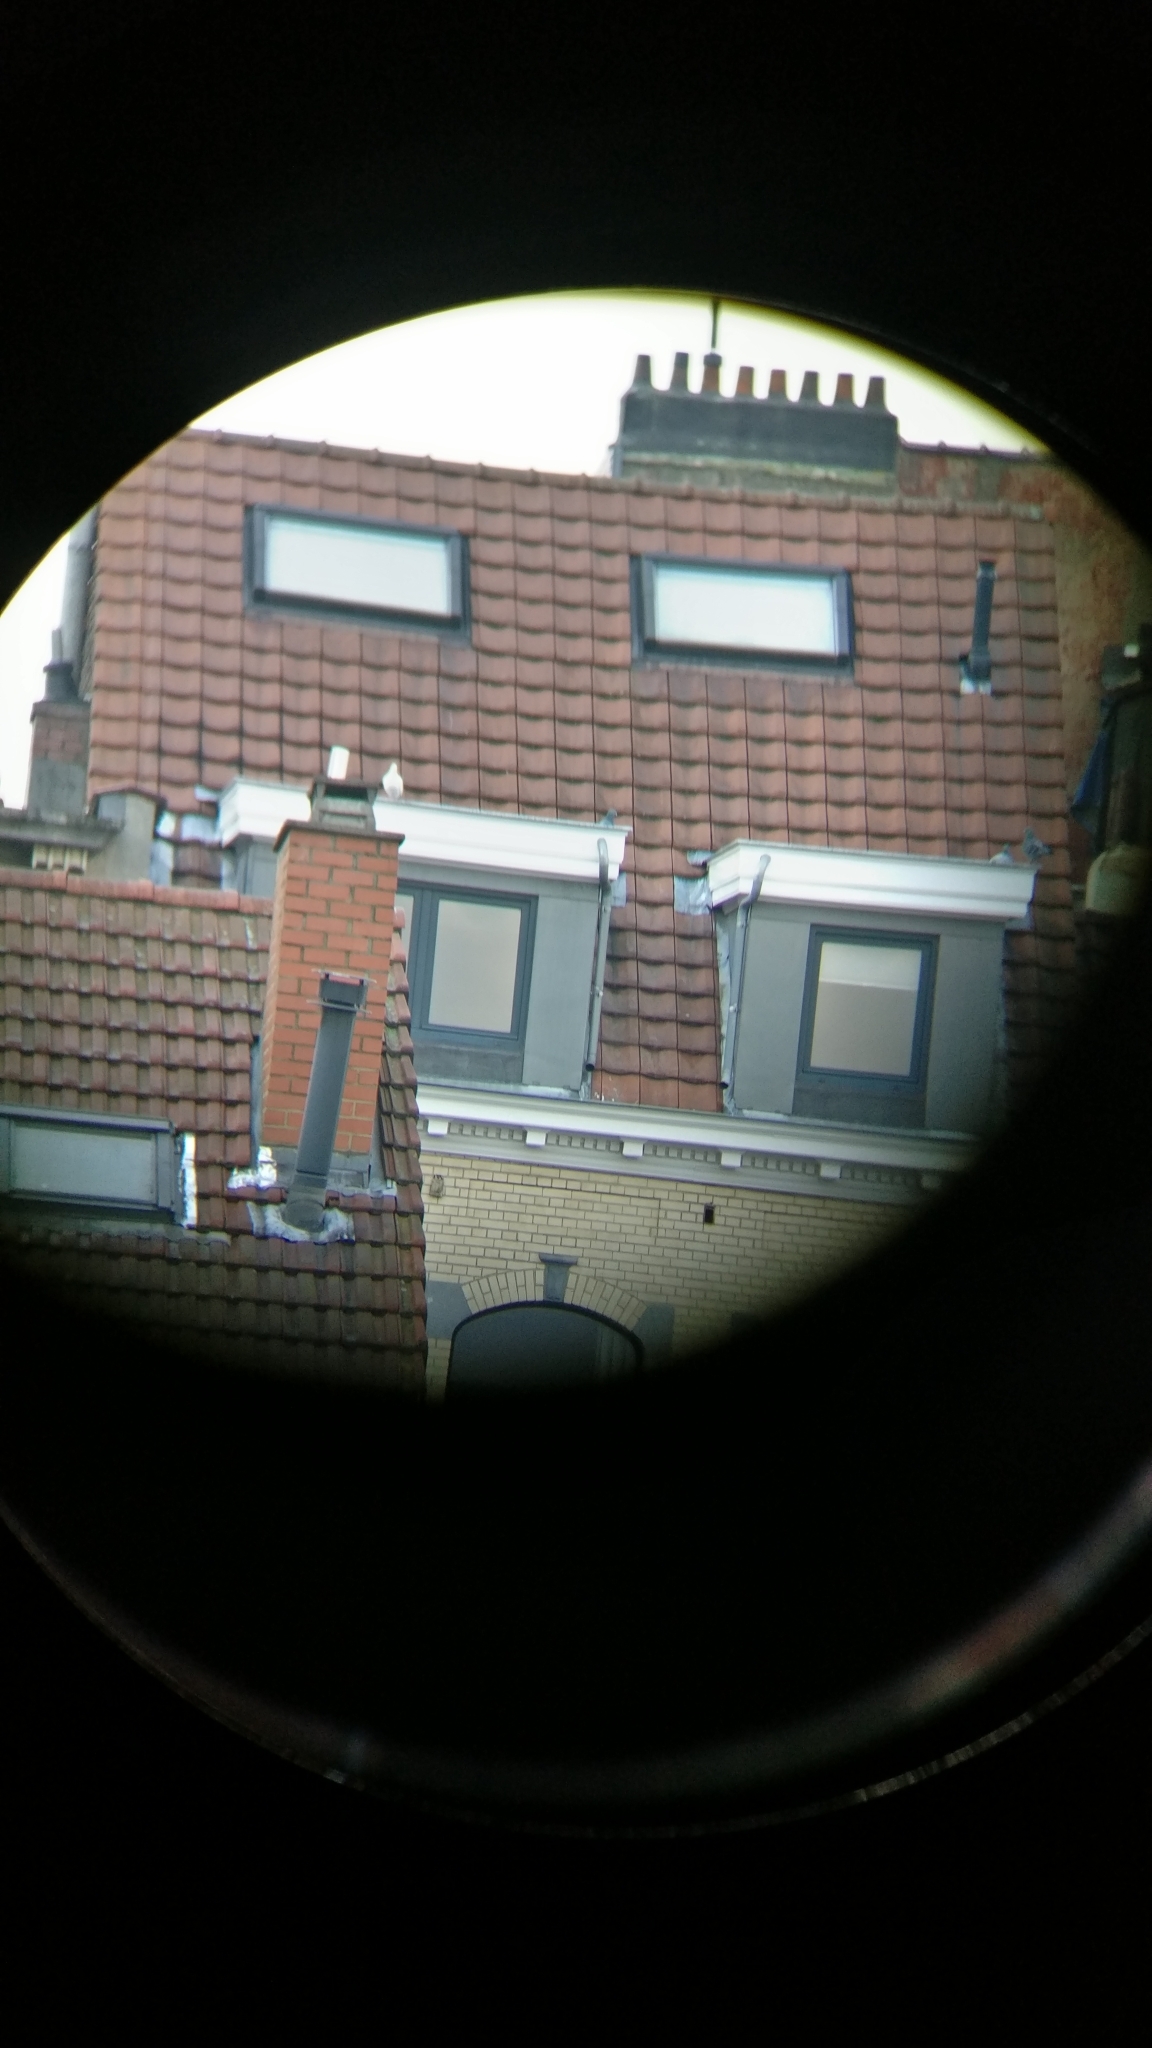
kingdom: Animalia
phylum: Chordata
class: Aves
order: Columbiformes
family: Columbidae
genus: Columba
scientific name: Columba livia
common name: Rock pigeon
